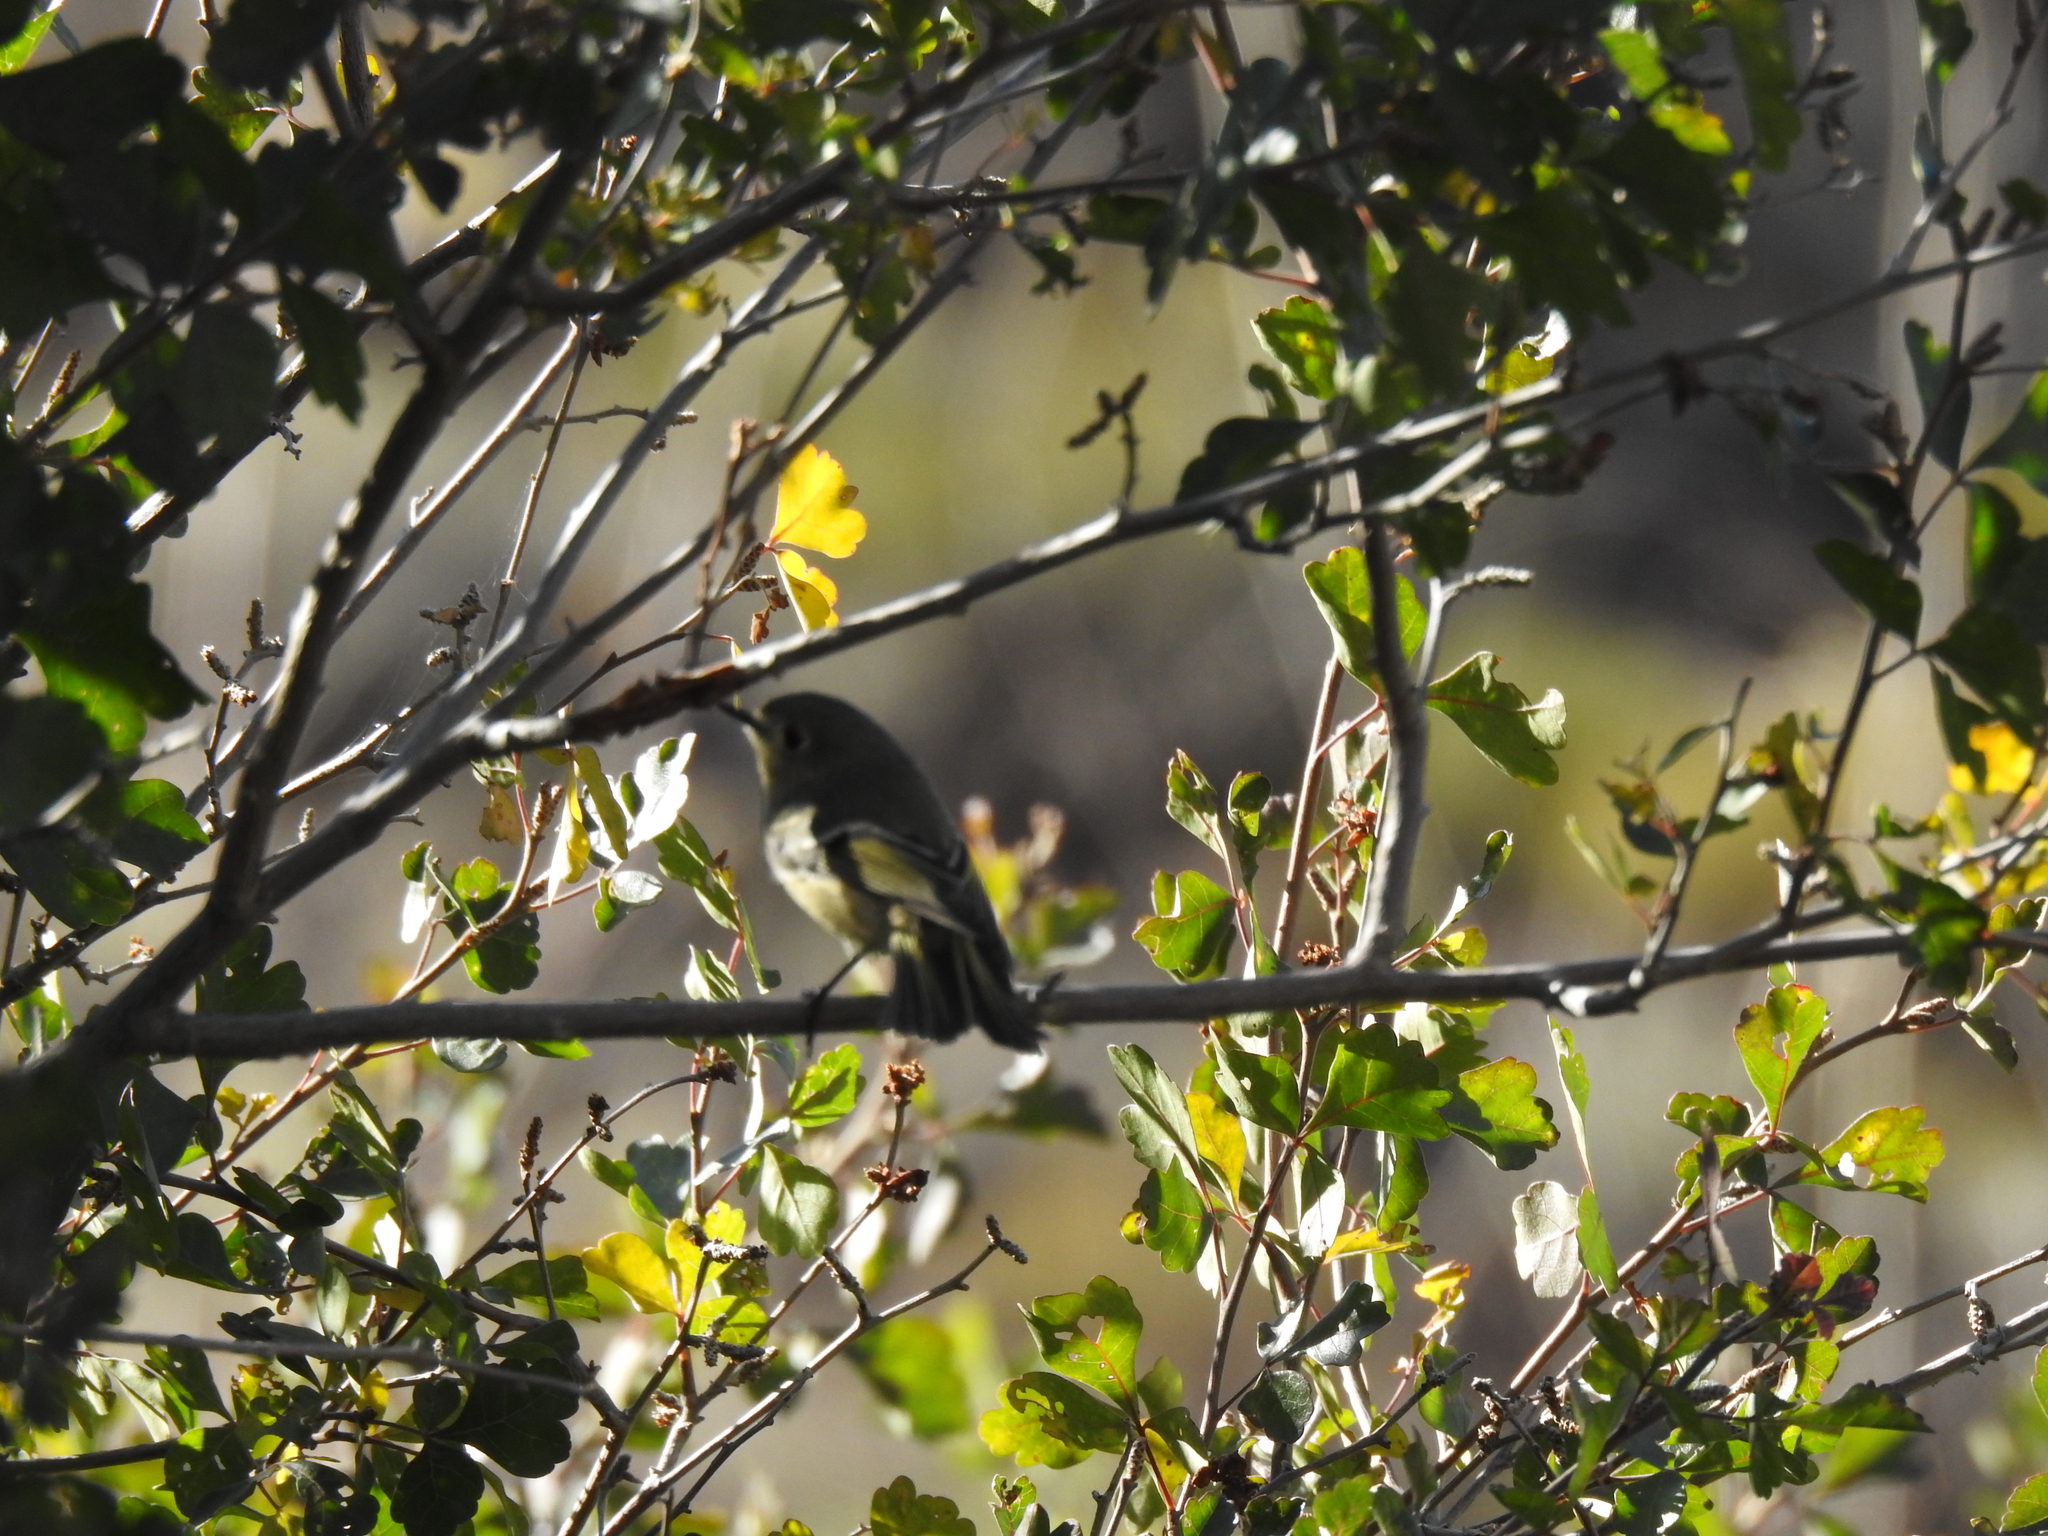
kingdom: Animalia
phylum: Chordata
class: Aves
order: Passeriformes
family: Regulidae
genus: Regulus
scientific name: Regulus calendula
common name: Ruby-crowned kinglet
